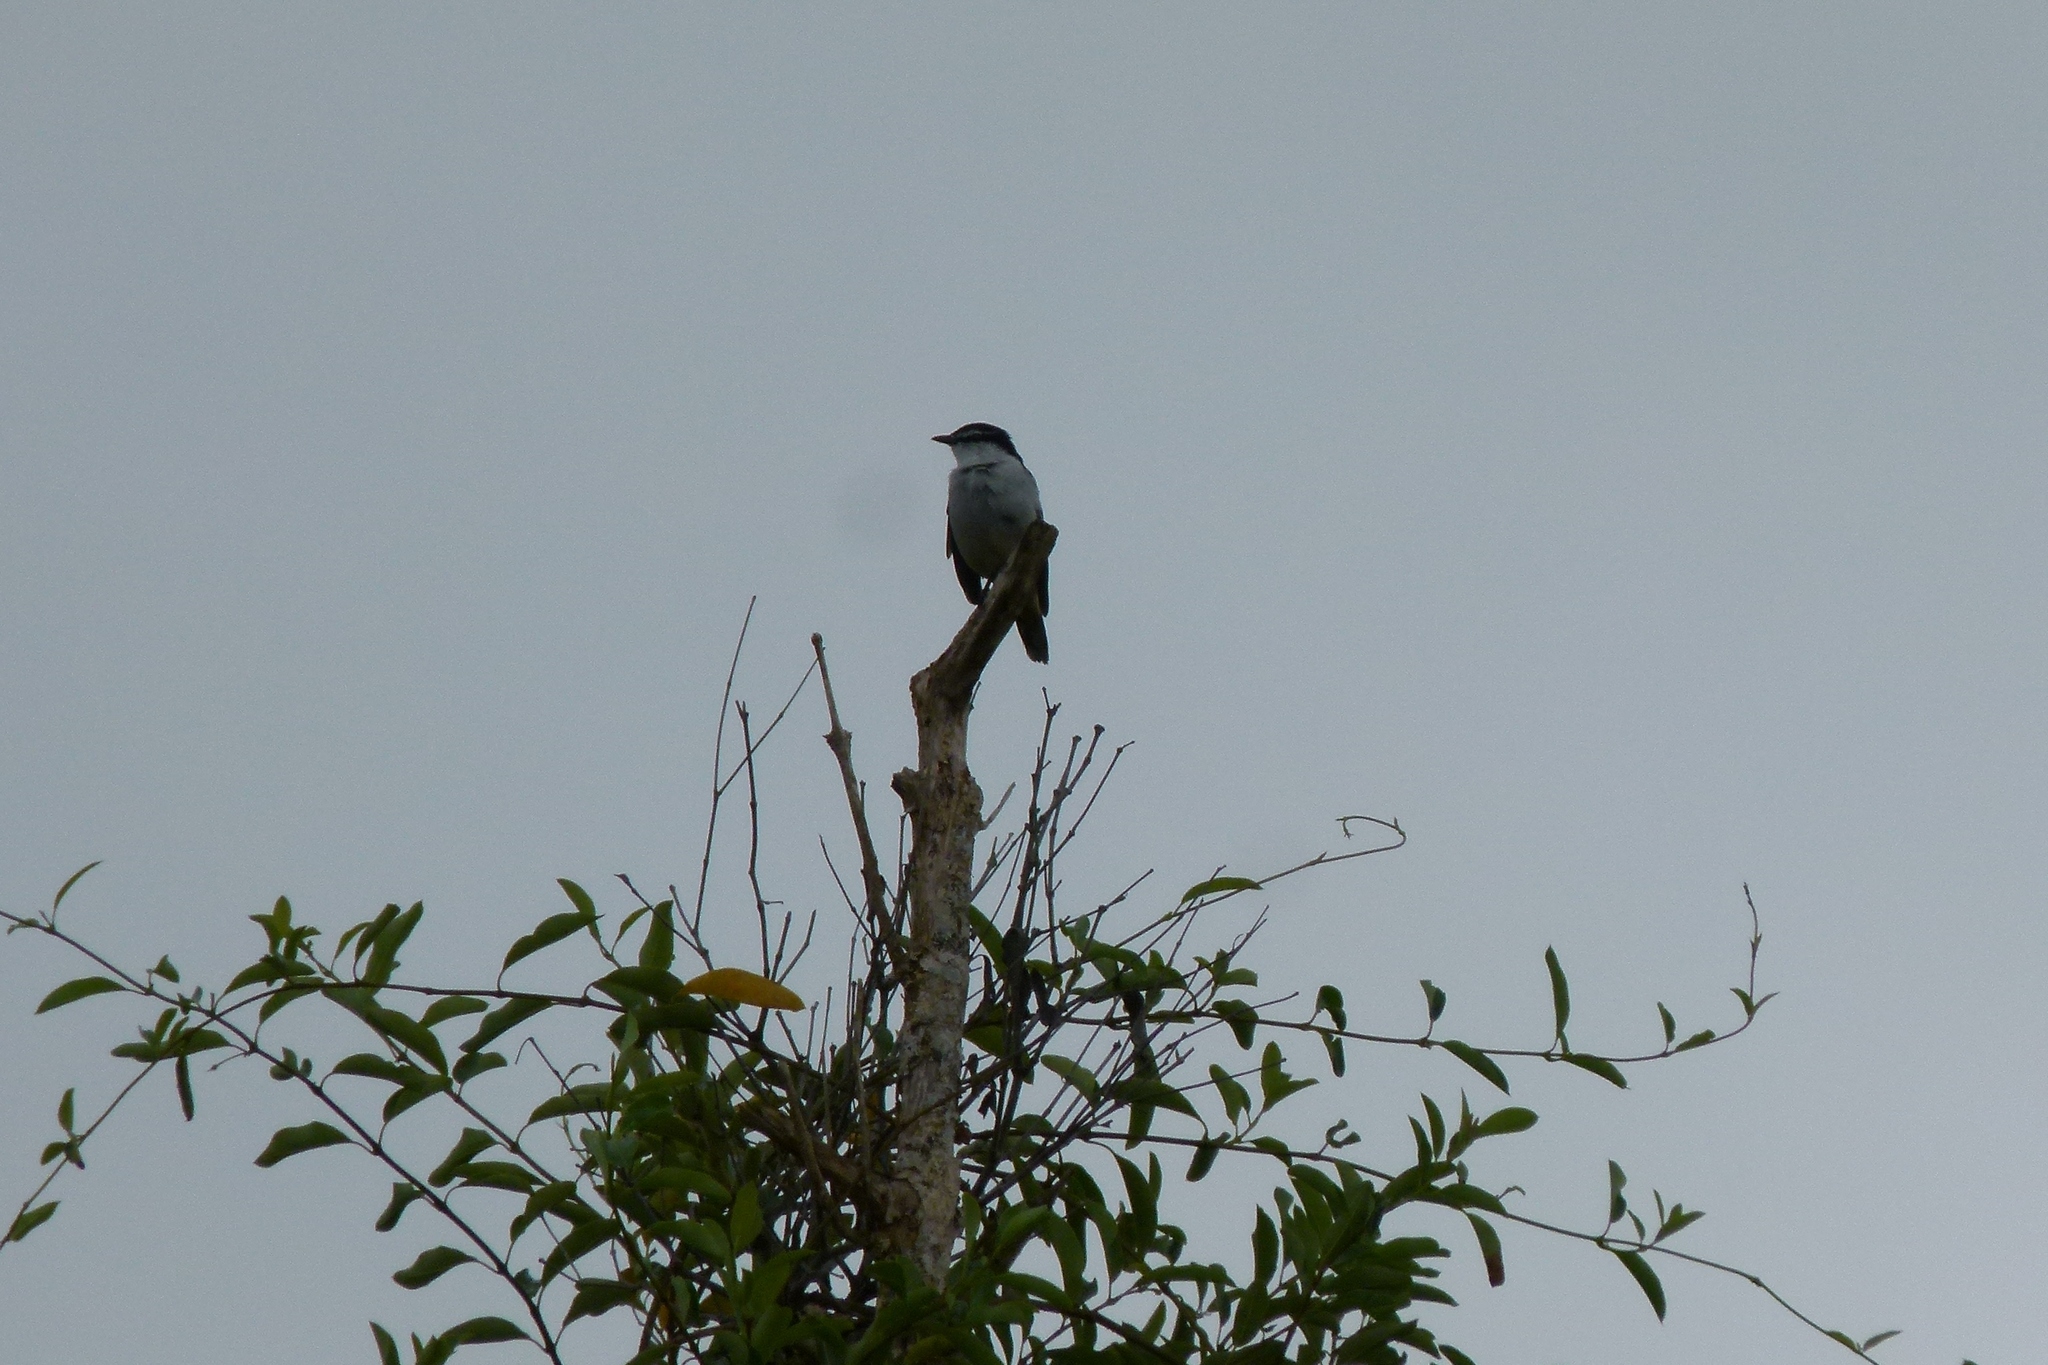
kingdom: Animalia
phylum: Chordata
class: Aves
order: Passeriformes
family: Campephagidae
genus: Lalage
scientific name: Lalage leucomela
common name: Varied triller
